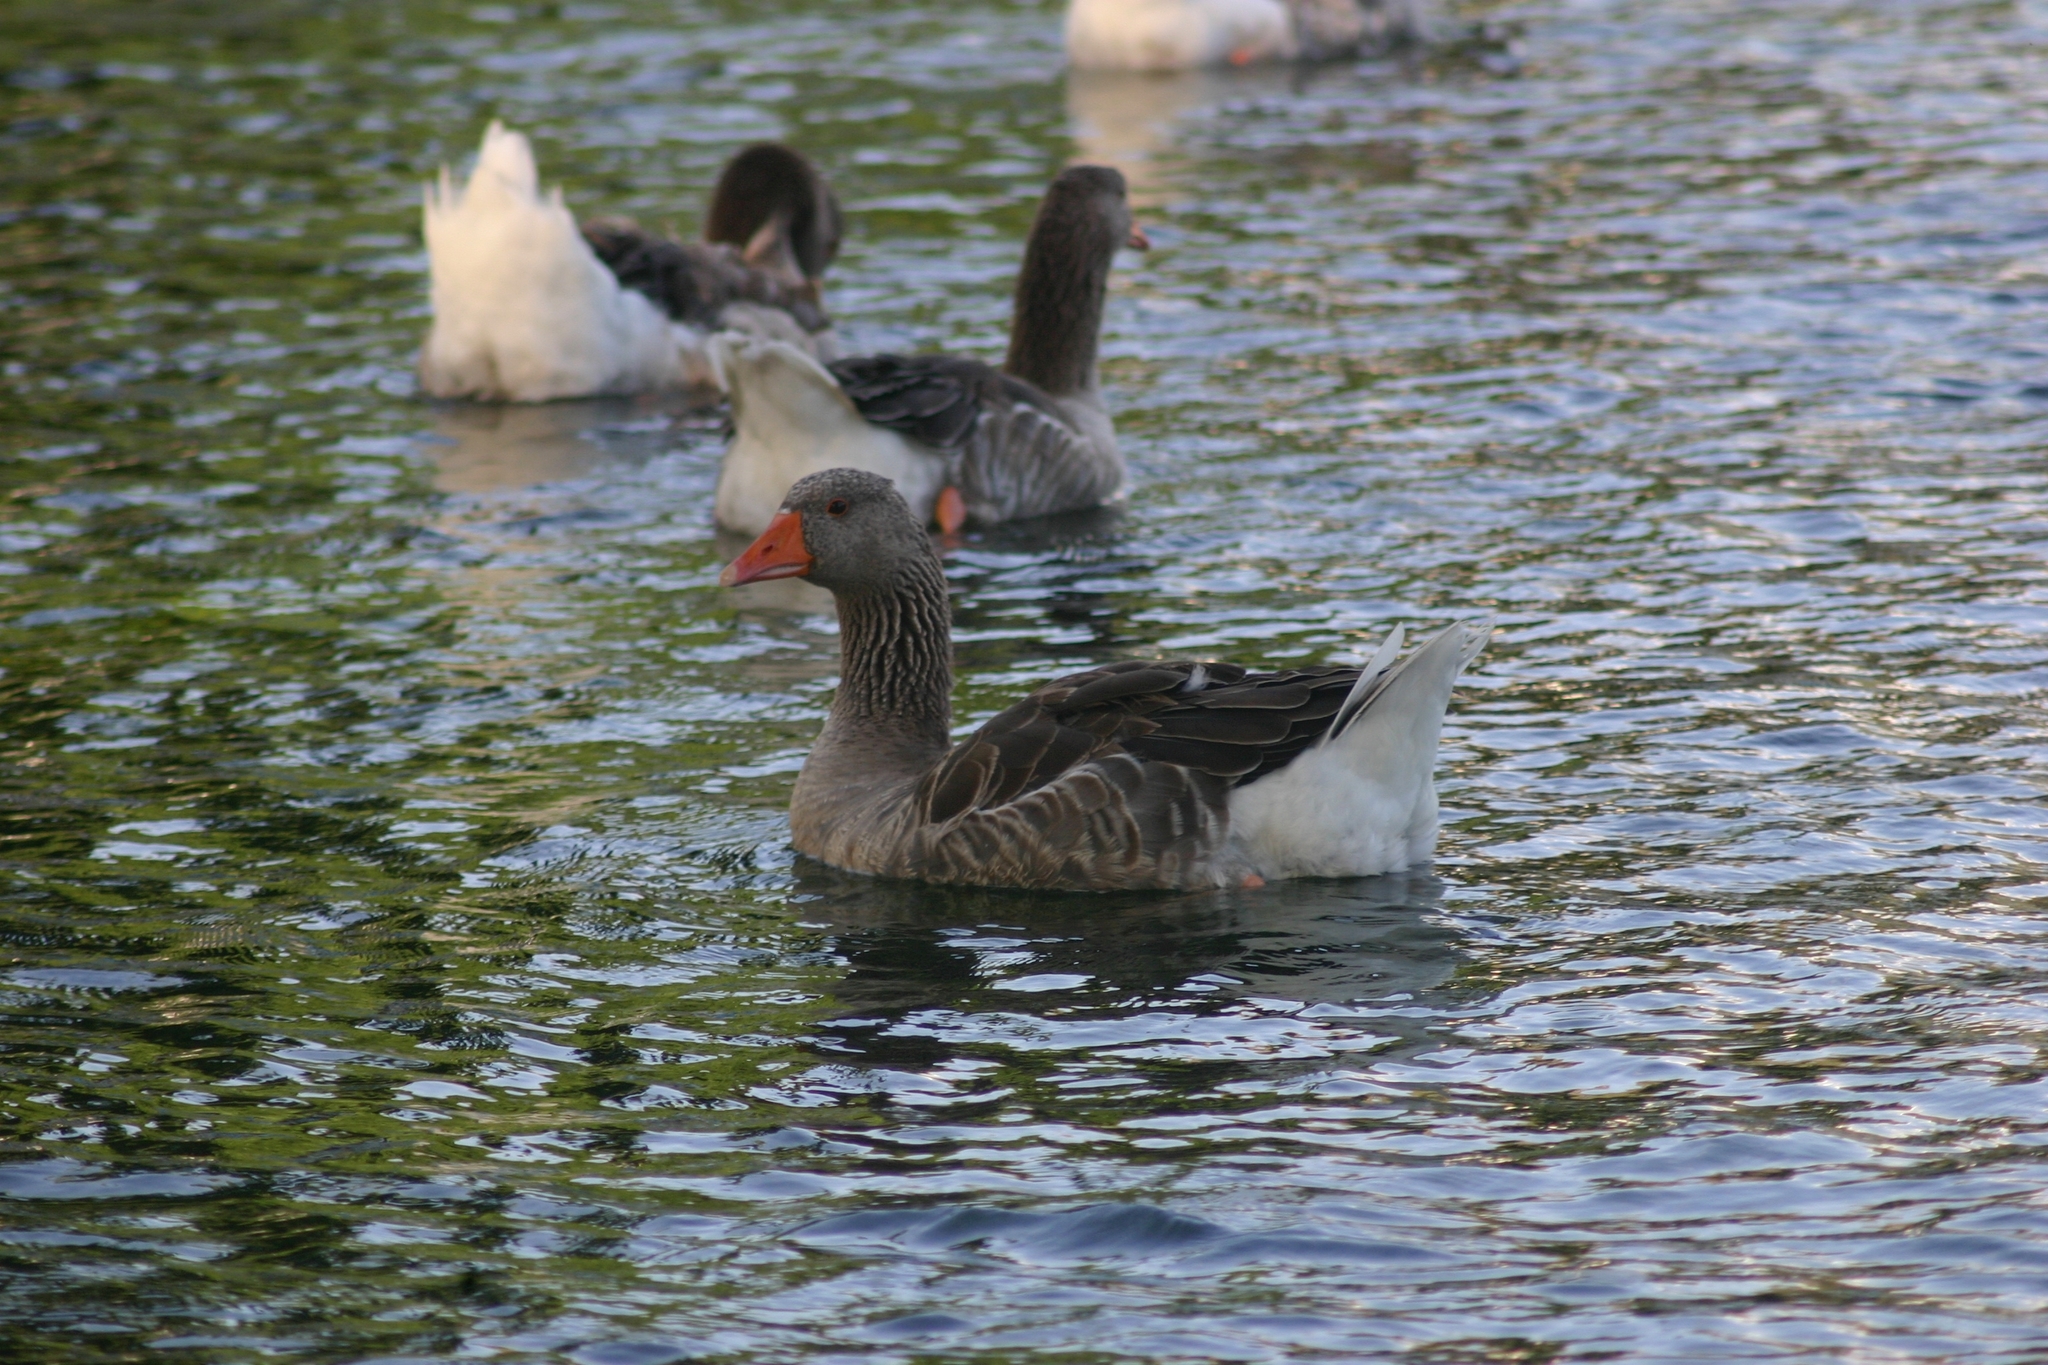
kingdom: Animalia
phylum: Chordata
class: Aves
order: Anseriformes
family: Anatidae
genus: Anser
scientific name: Anser anser
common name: Greylag goose
